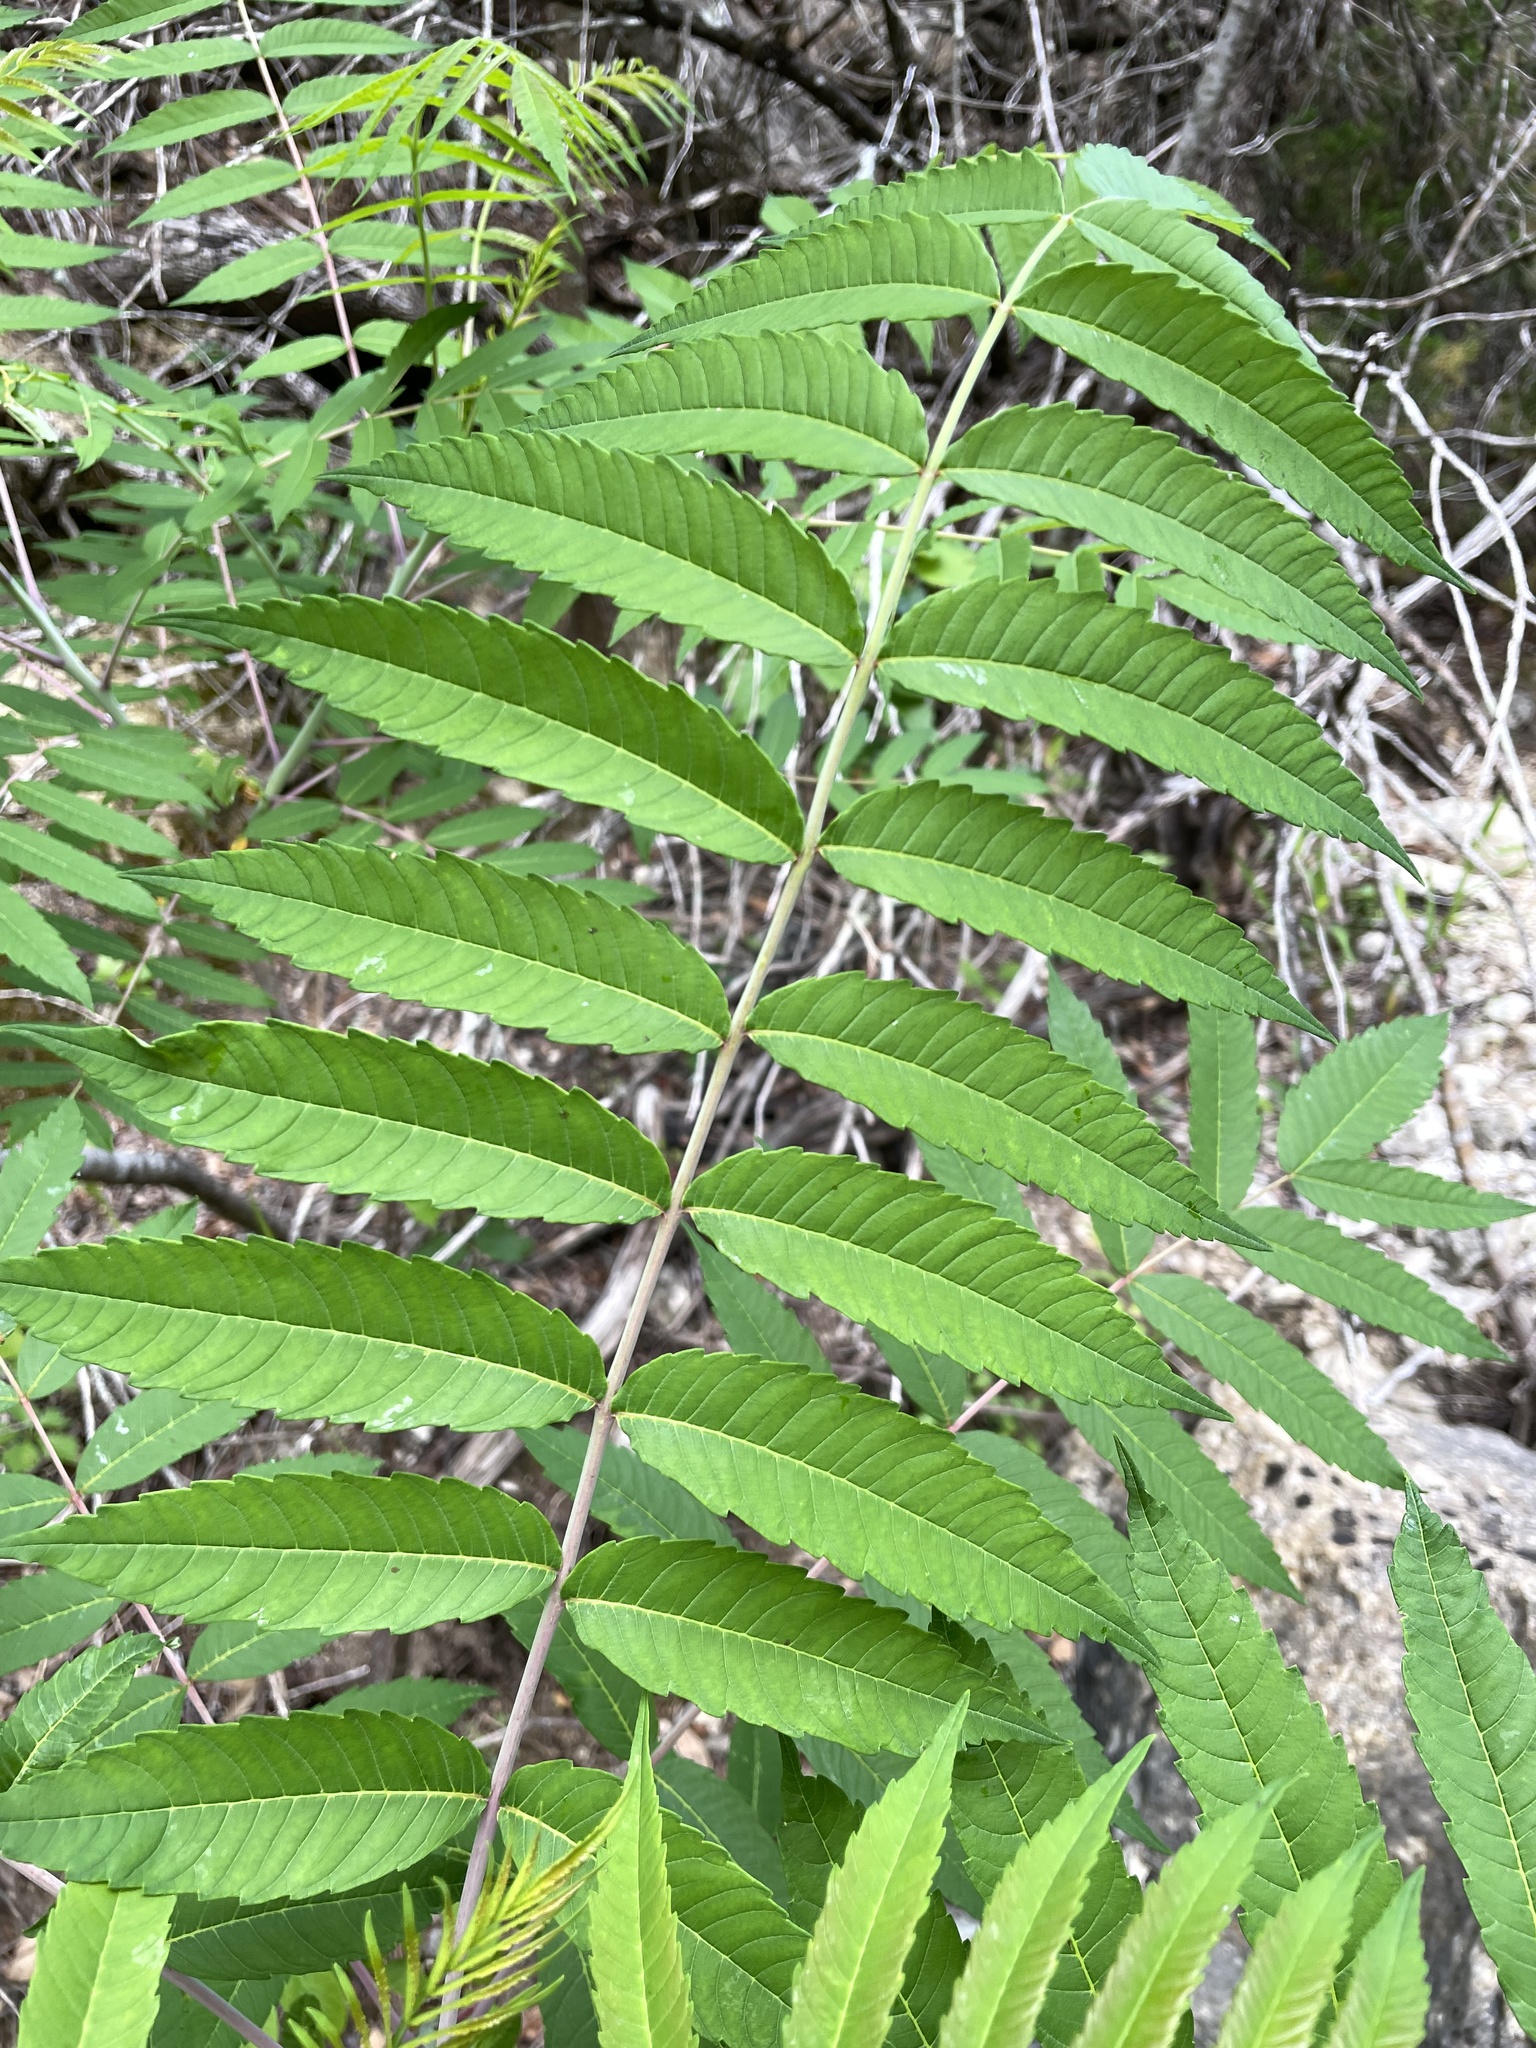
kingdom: Plantae
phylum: Tracheophyta
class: Magnoliopsida
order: Sapindales
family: Anacardiaceae
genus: Rhus
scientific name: Rhus glabra
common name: Scarlet sumac
